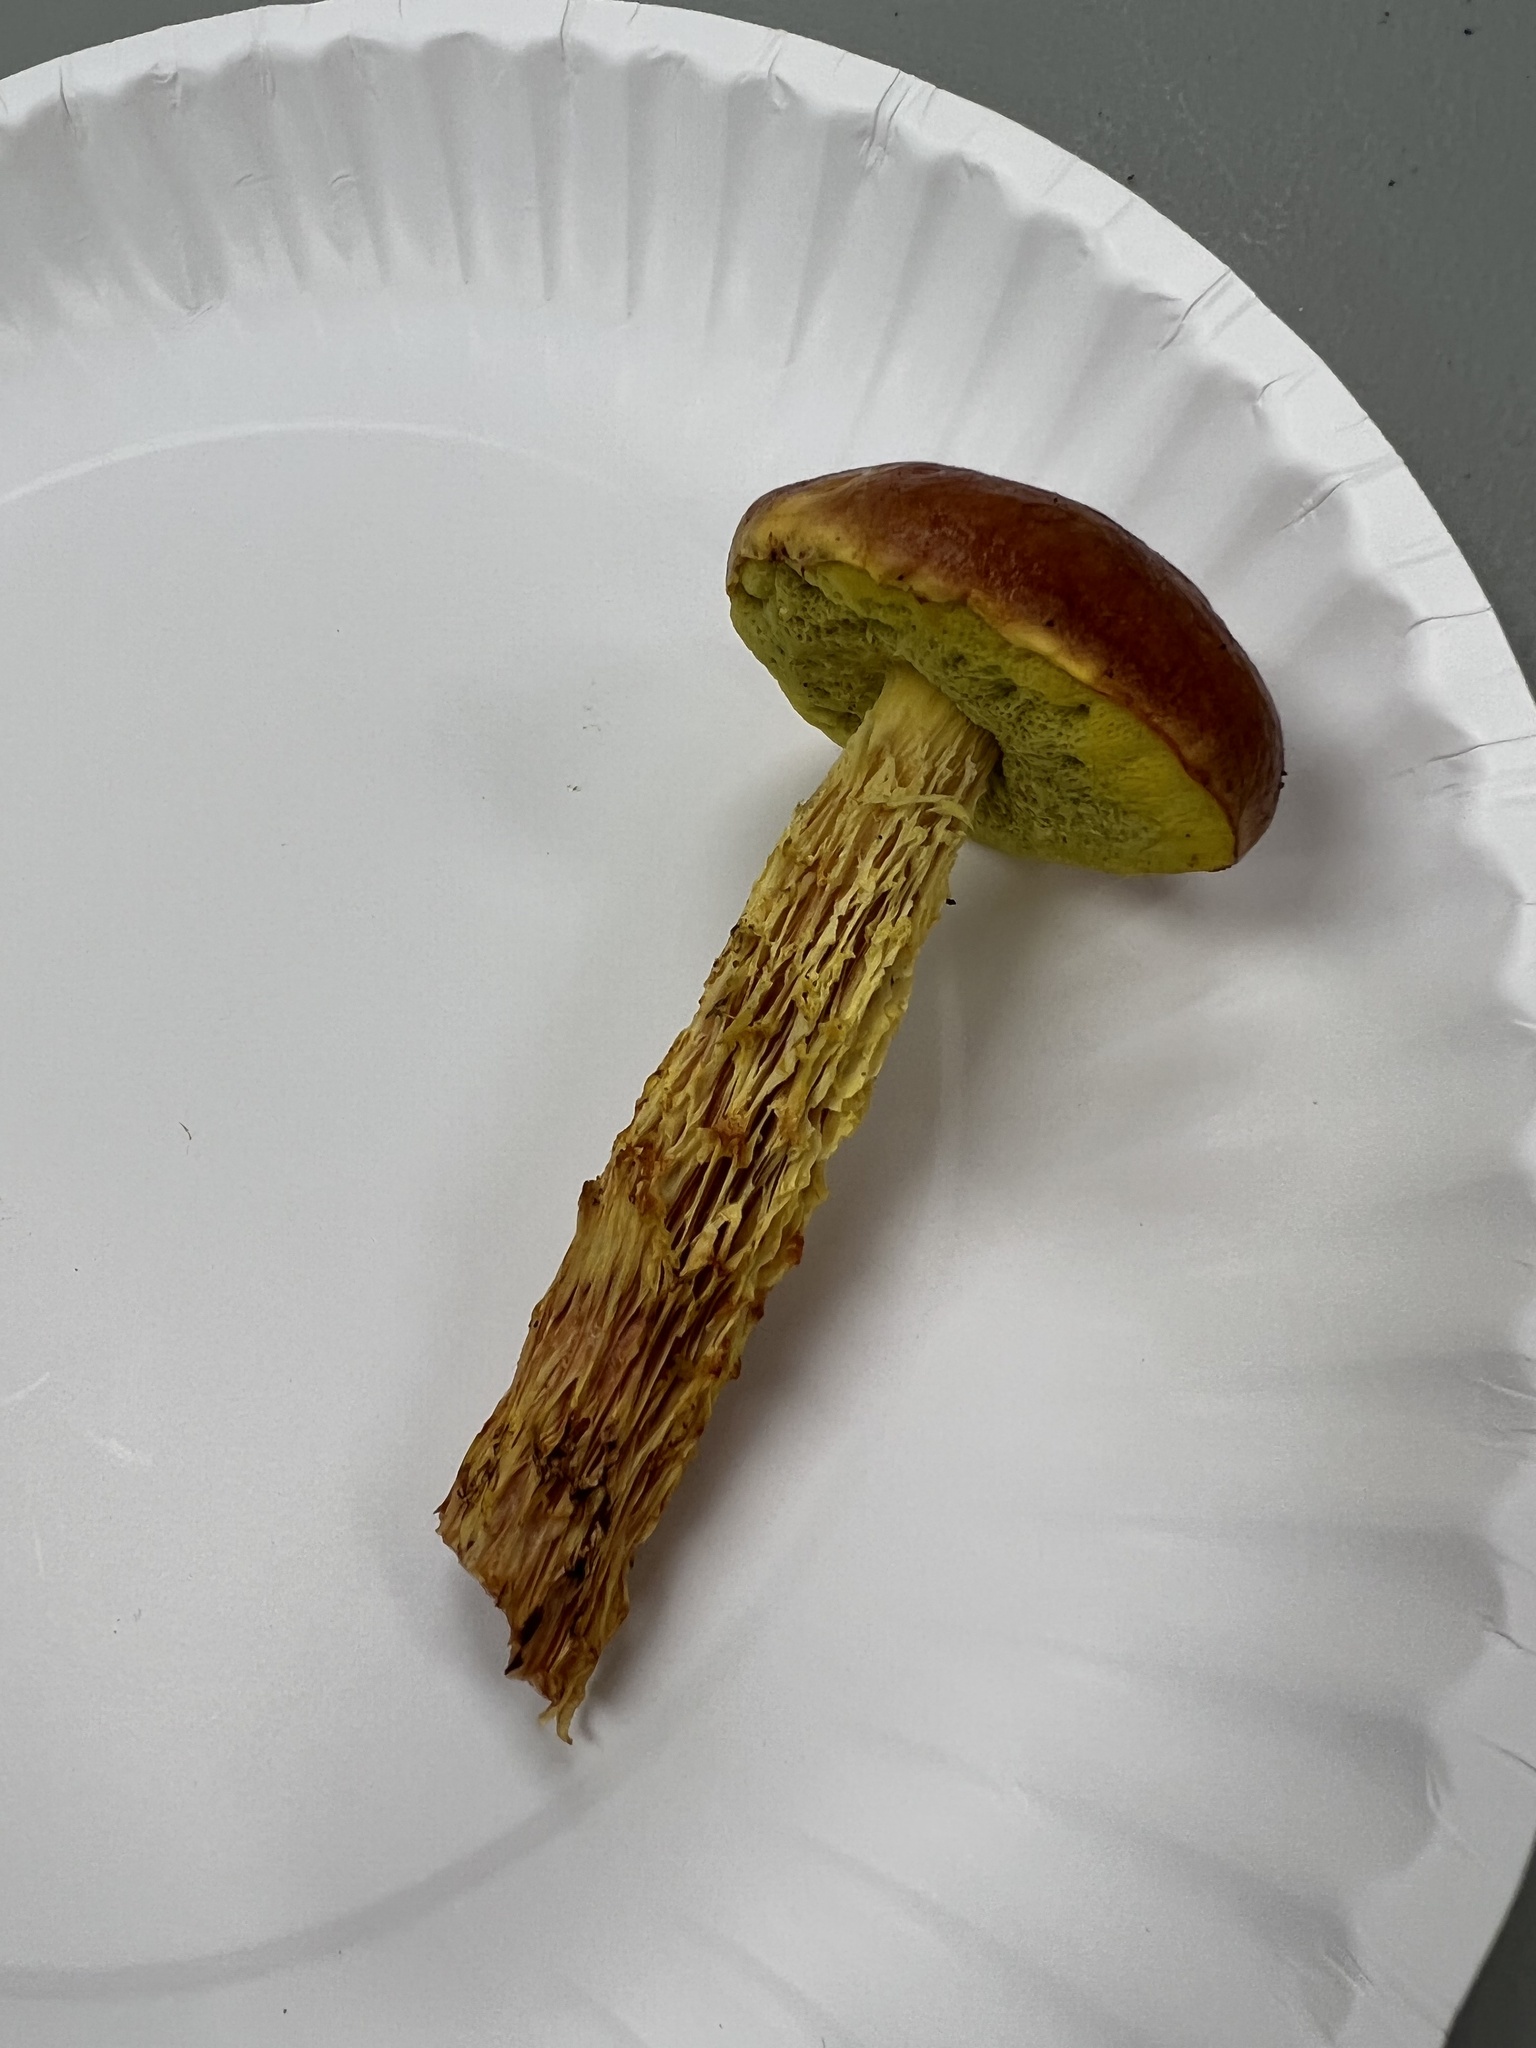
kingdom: Fungi
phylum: Basidiomycota
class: Agaricomycetes
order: Boletales
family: Boletaceae
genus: Aureoboletus
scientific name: Aureoboletus betula
